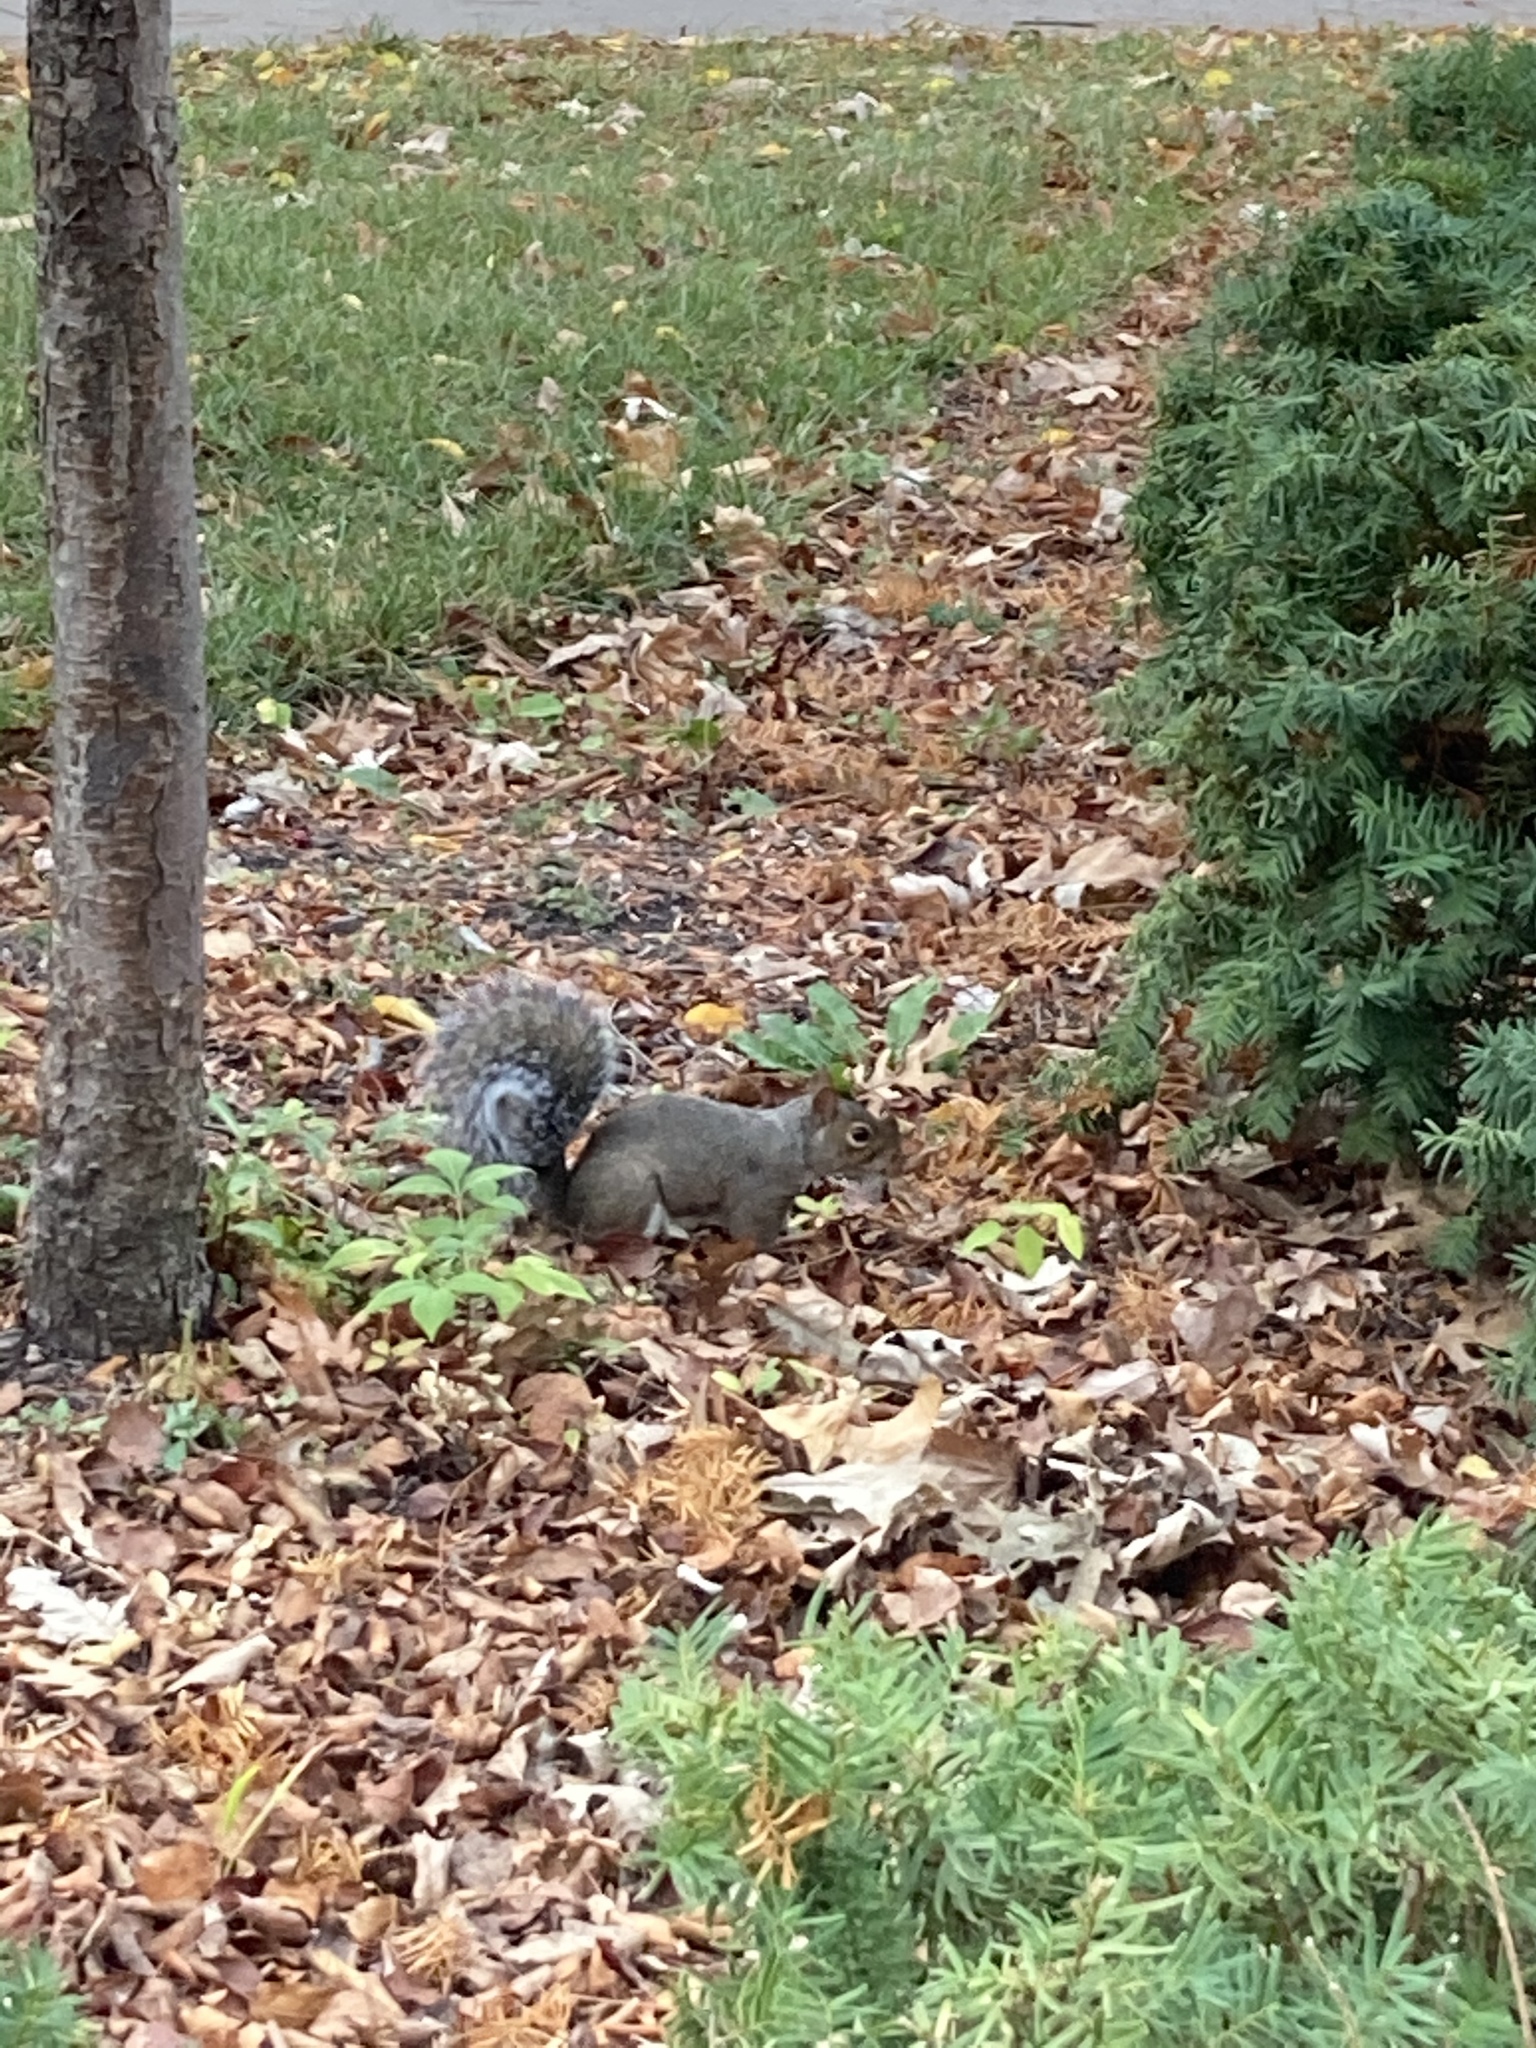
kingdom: Animalia
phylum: Chordata
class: Mammalia
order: Rodentia
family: Sciuridae
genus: Sciurus
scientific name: Sciurus carolinensis
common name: Eastern gray squirrel
